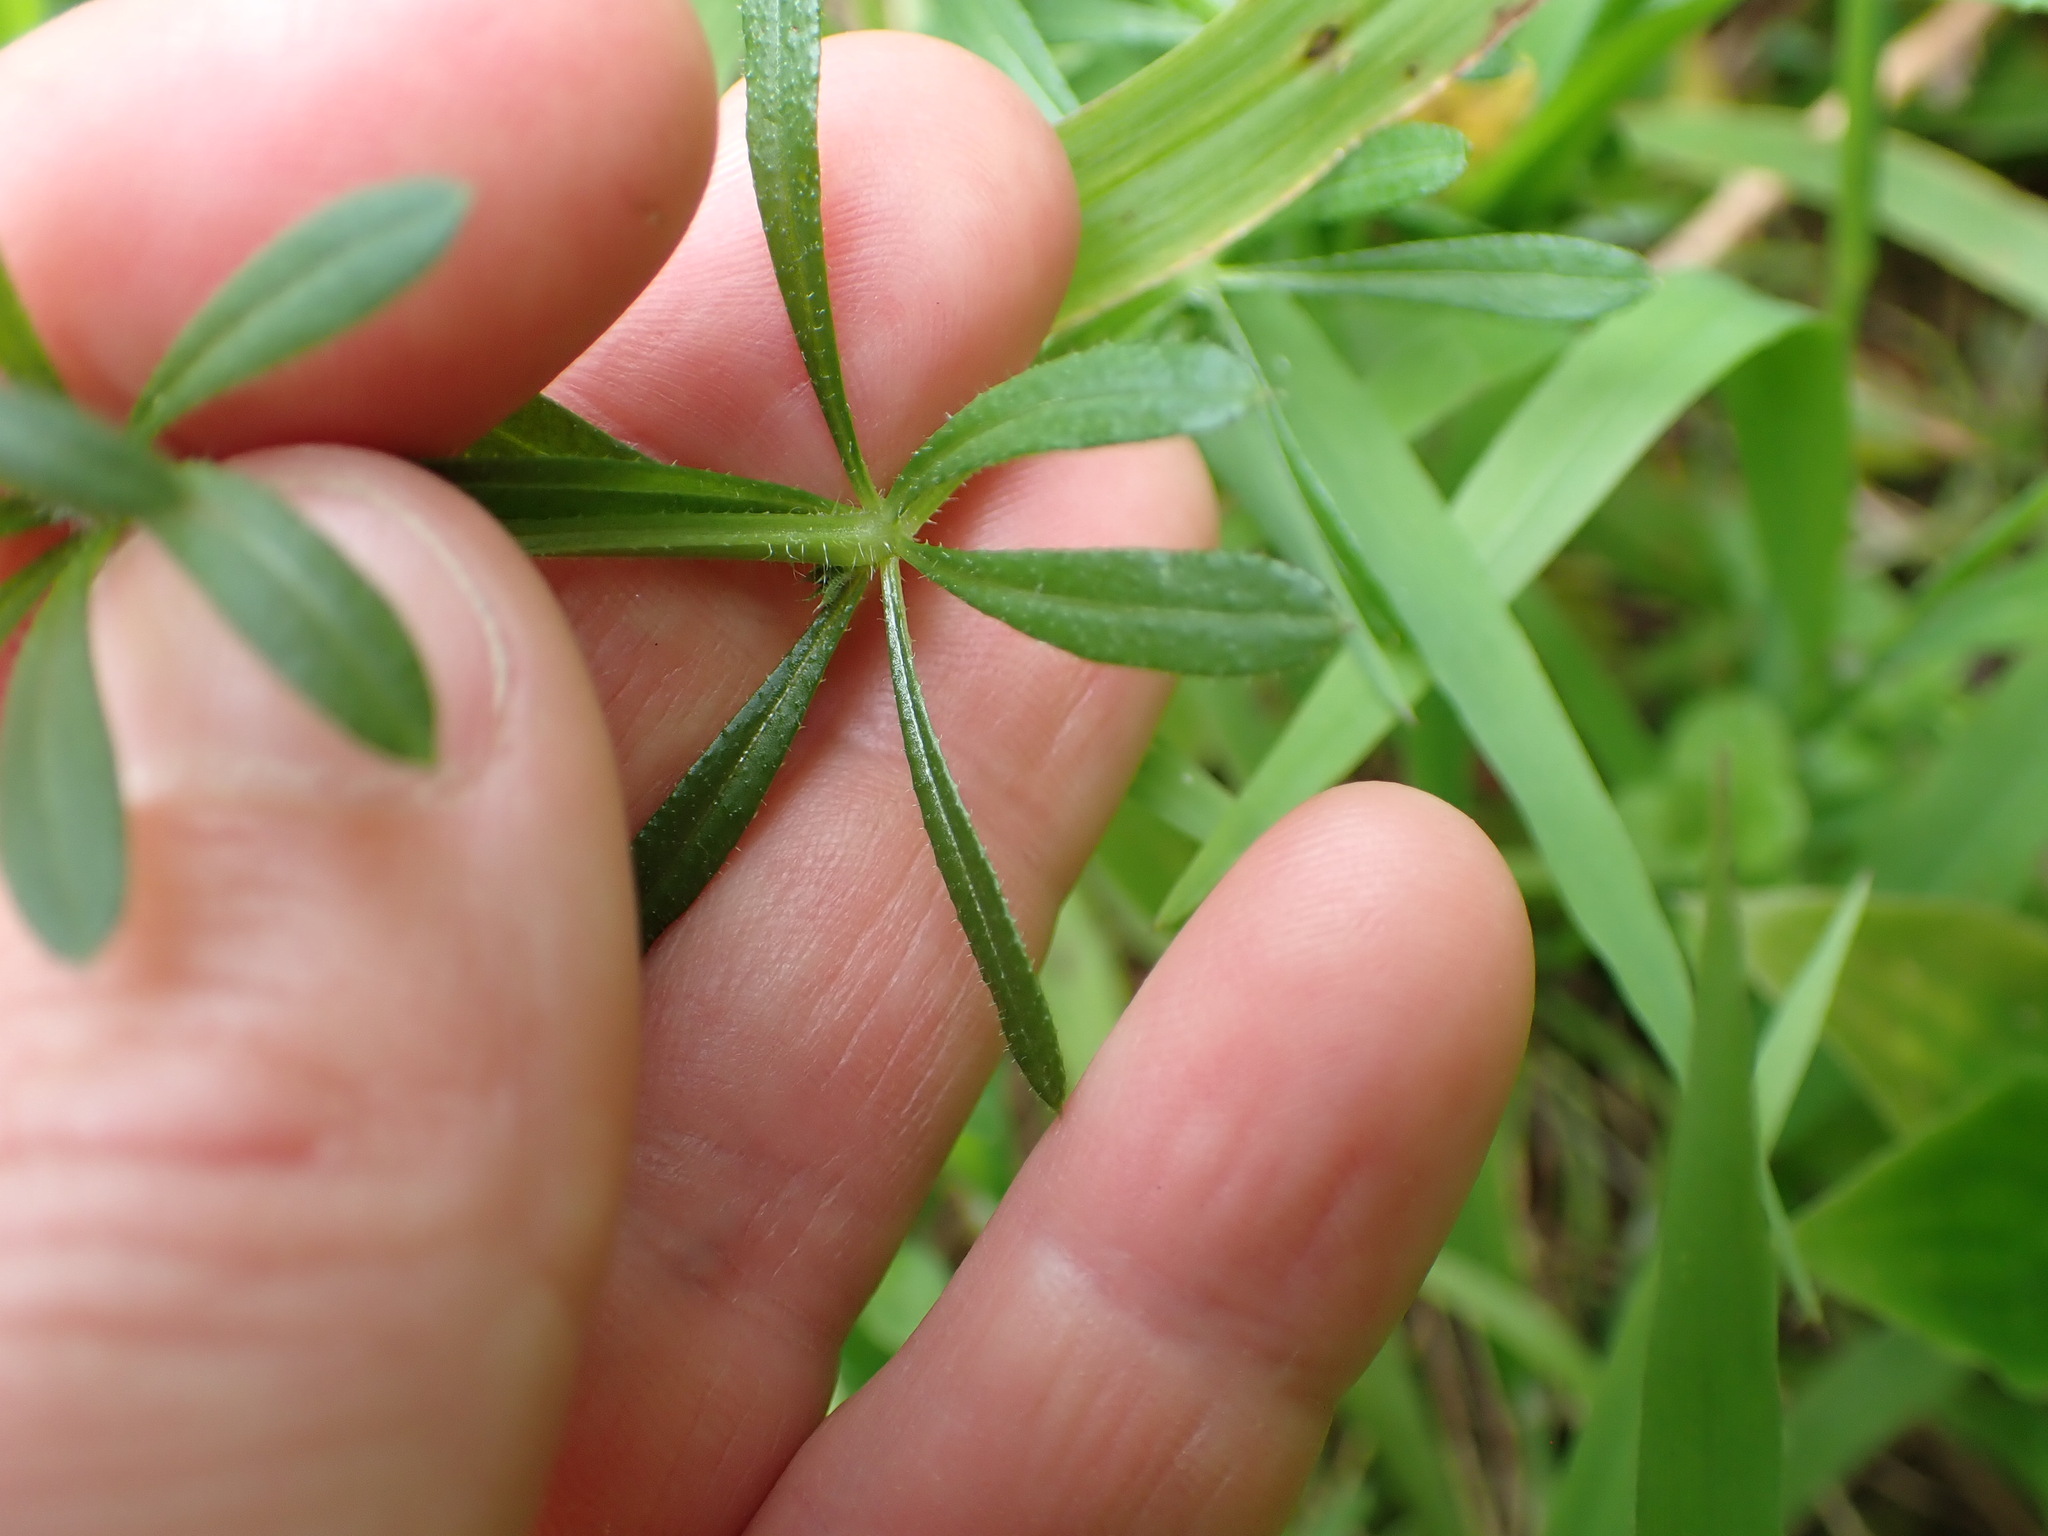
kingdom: Plantae
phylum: Tracheophyta
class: Magnoliopsida
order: Gentianales
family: Rubiaceae
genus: Galium
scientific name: Galium aparine
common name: Cleavers
